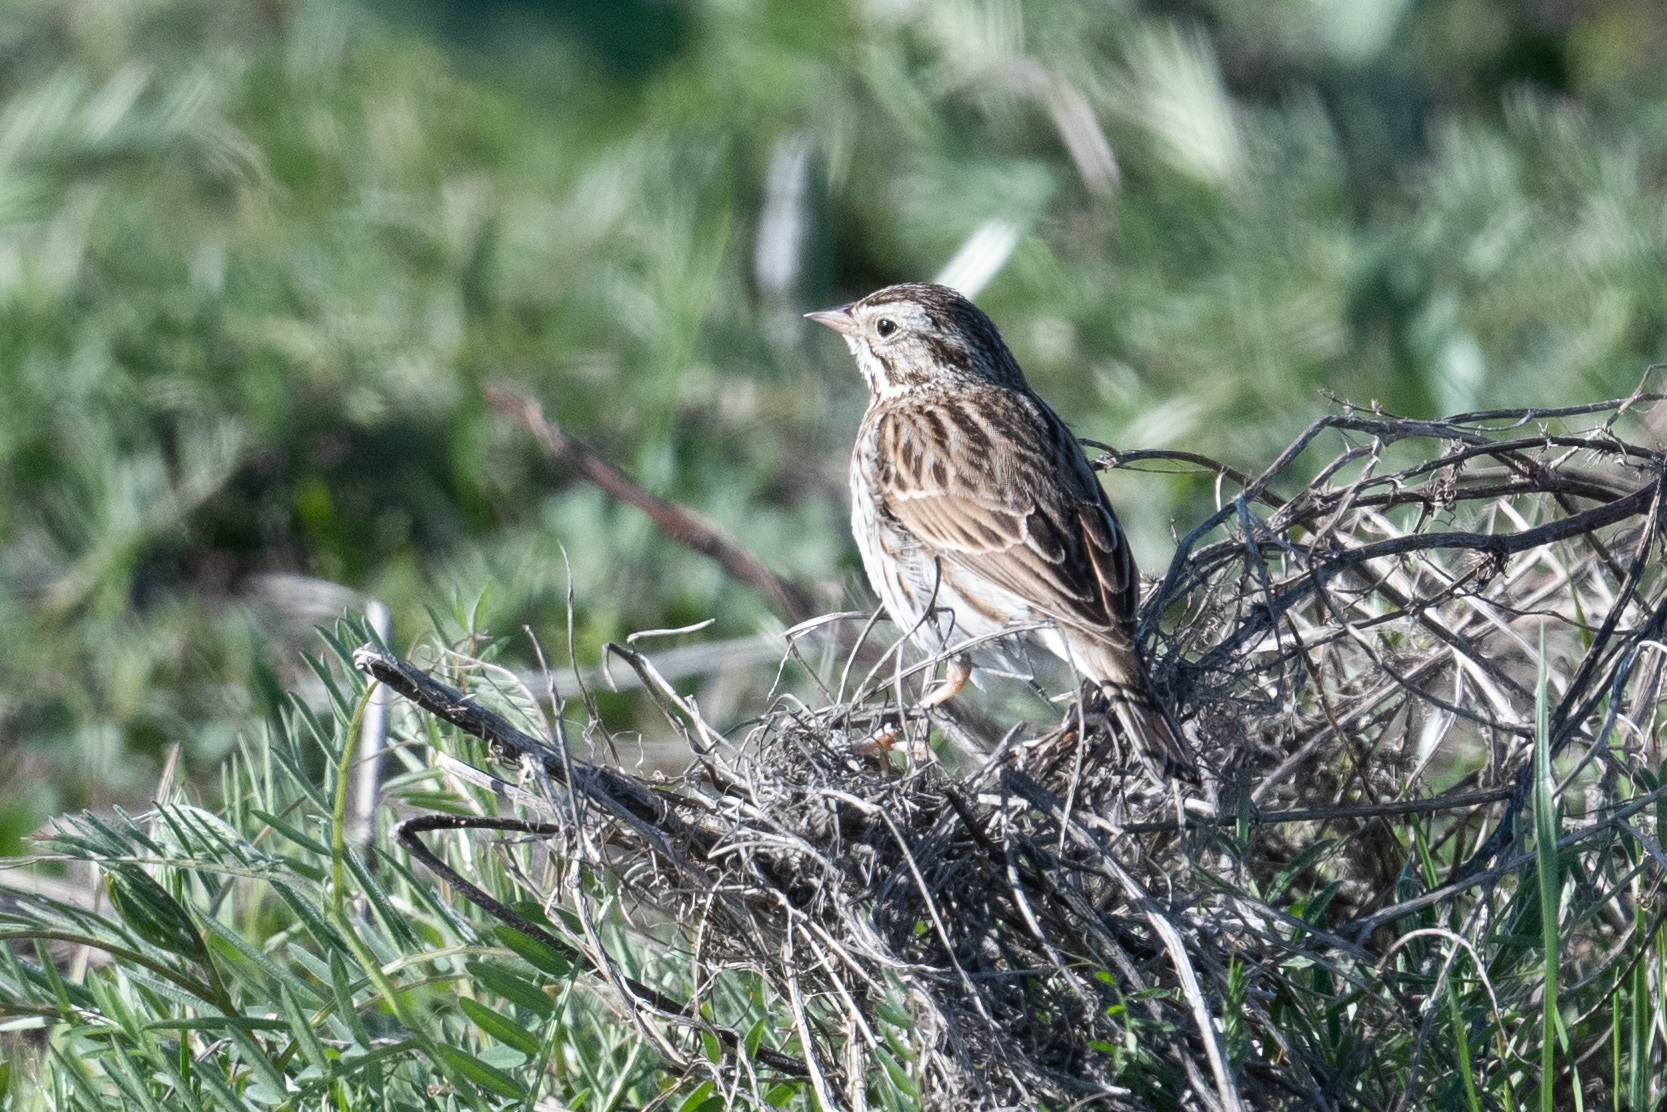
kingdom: Animalia
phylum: Chordata
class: Aves
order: Passeriformes
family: Passerellidae
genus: Passerculus
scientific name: Passerculus sandwichensis
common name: Savannah sparrow
